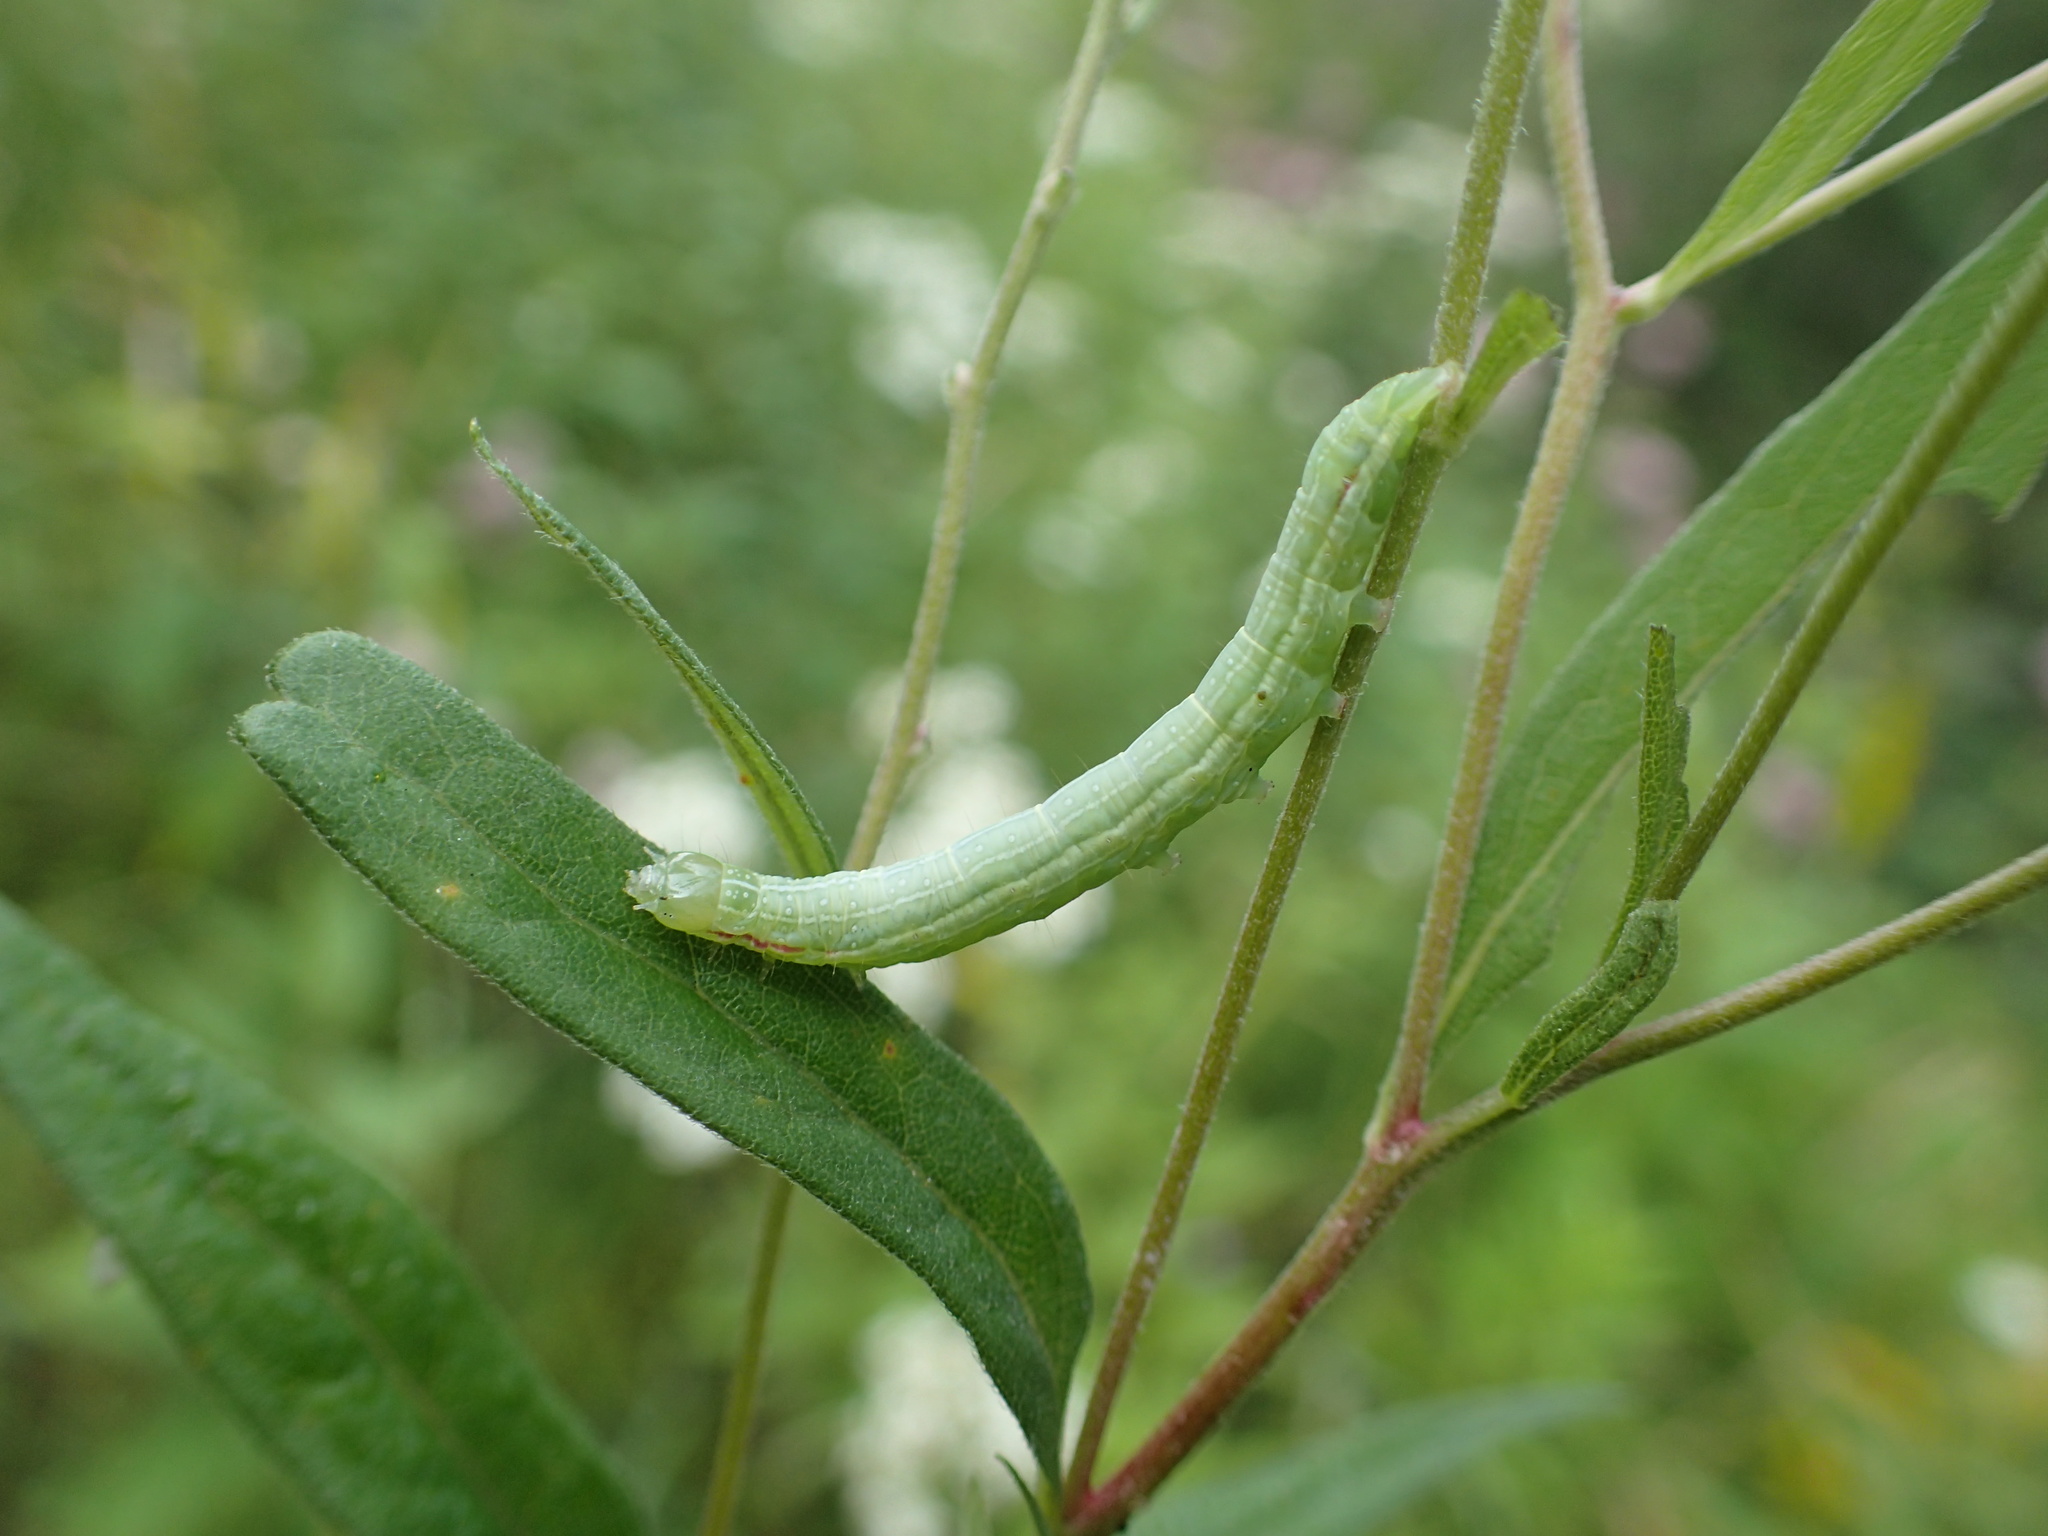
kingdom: Animalia
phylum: Arthropoda
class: Insecta
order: Lepidoptera
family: Noctuidae
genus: Leuconycta
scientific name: Leuconycta diphteroides
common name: Green leuconycta moth
